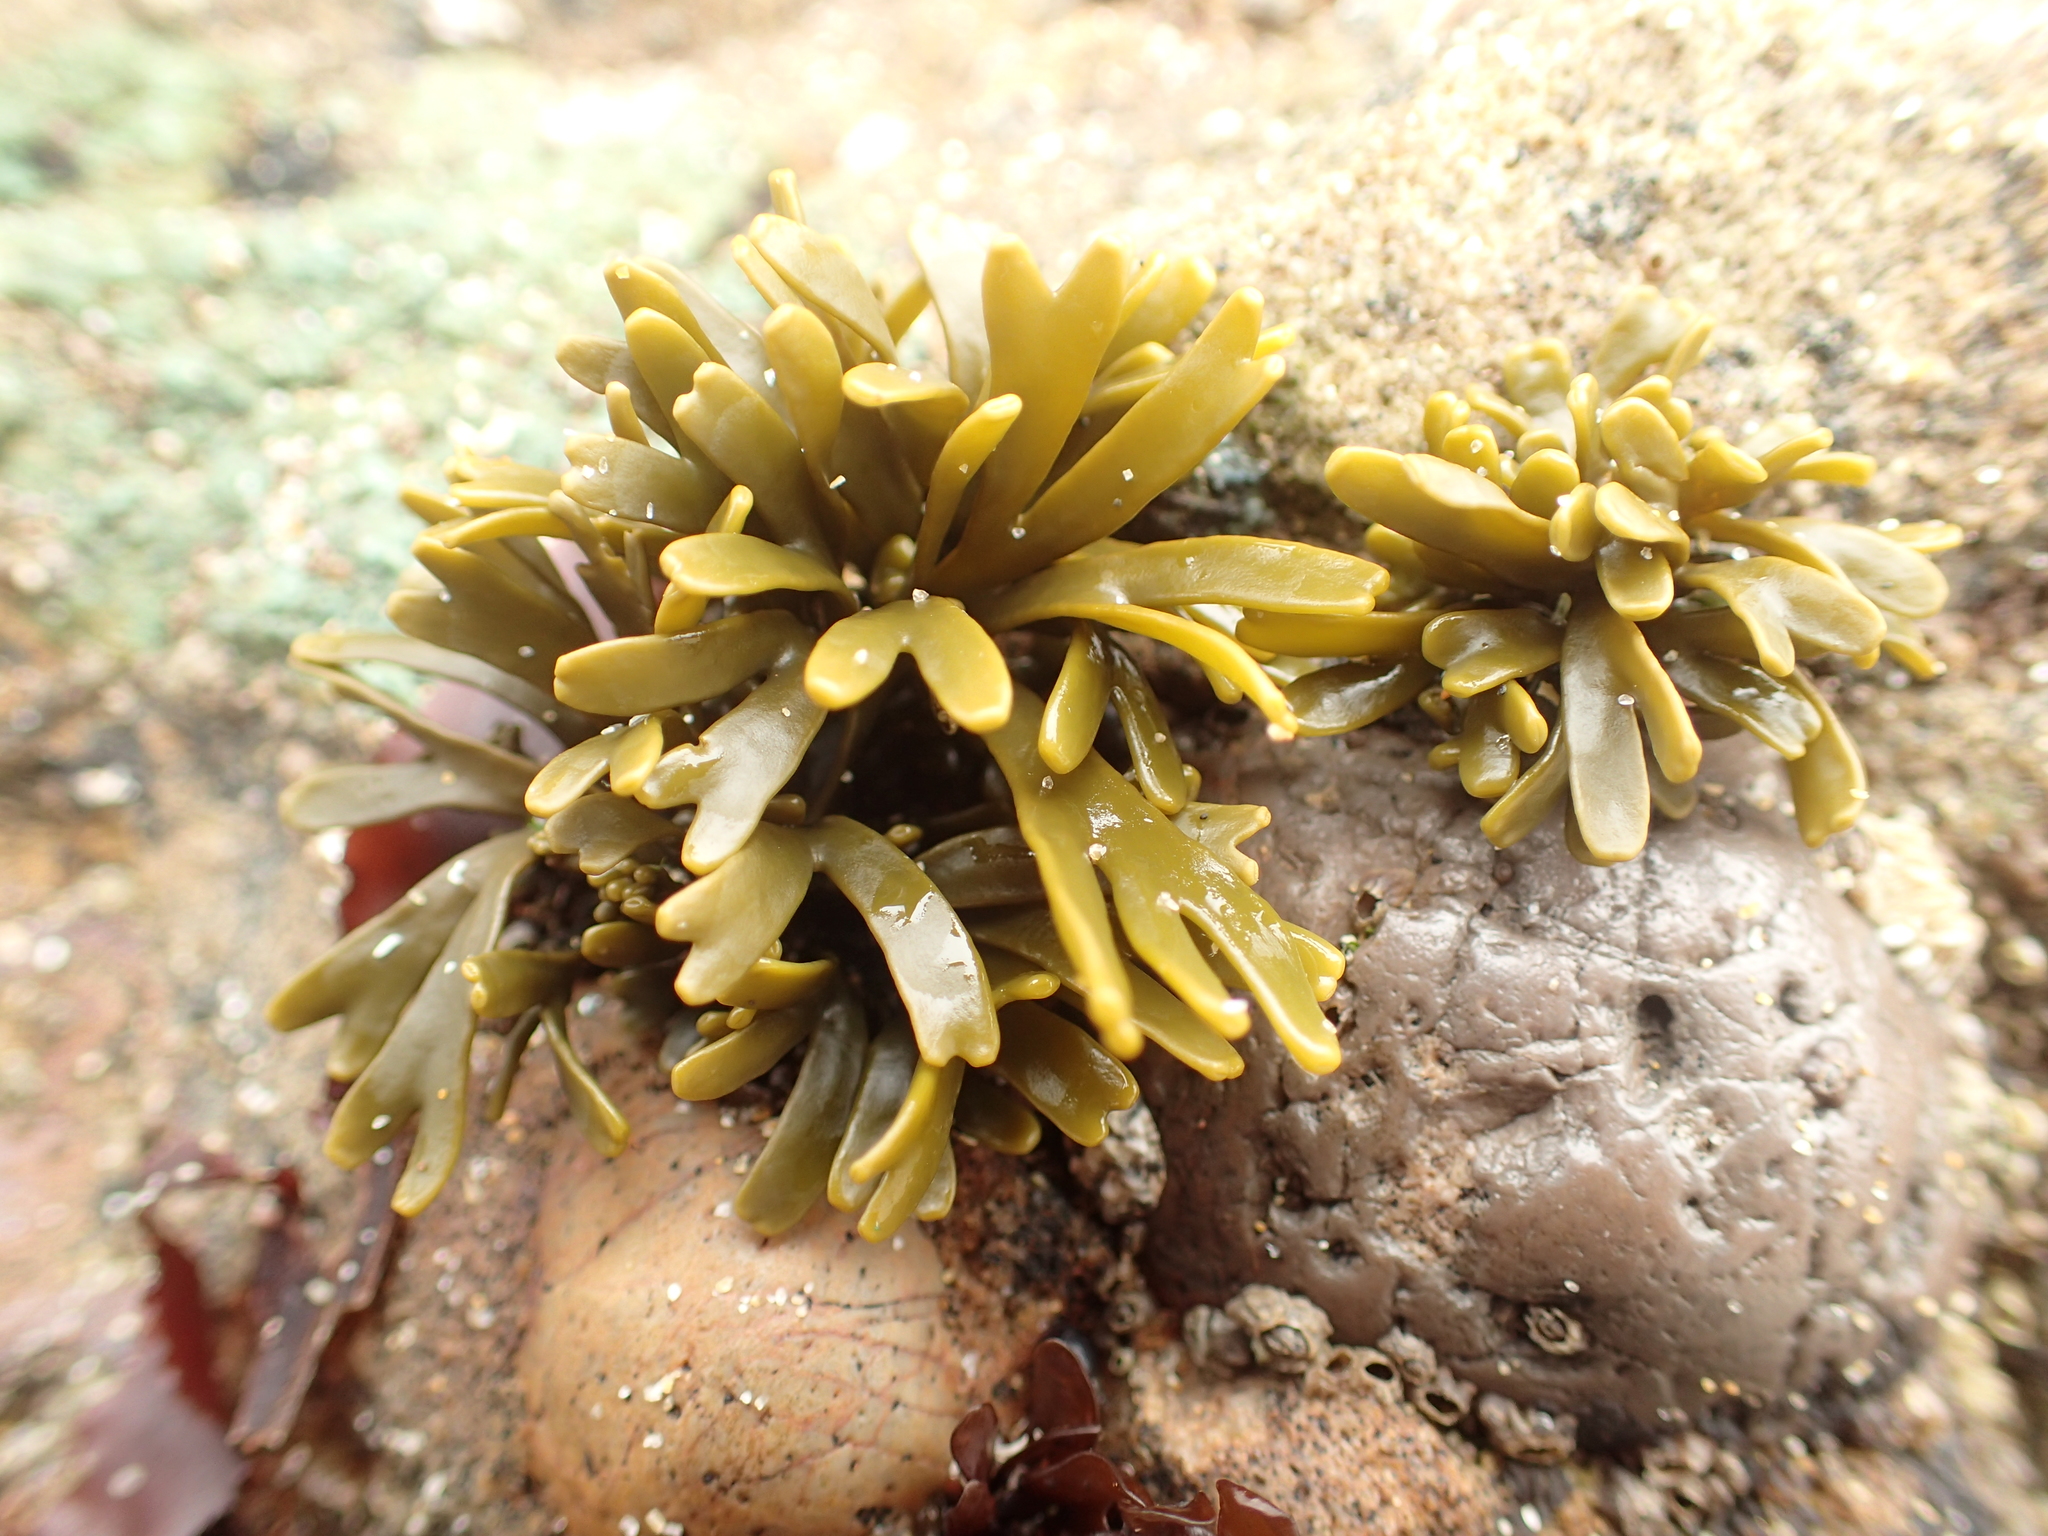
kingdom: Chromista
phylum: Ochrophyta
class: Phaeophyceae
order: Fucales
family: Fucaceae
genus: Pelvetiopsis
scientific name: Pelvetiopsis limitata
